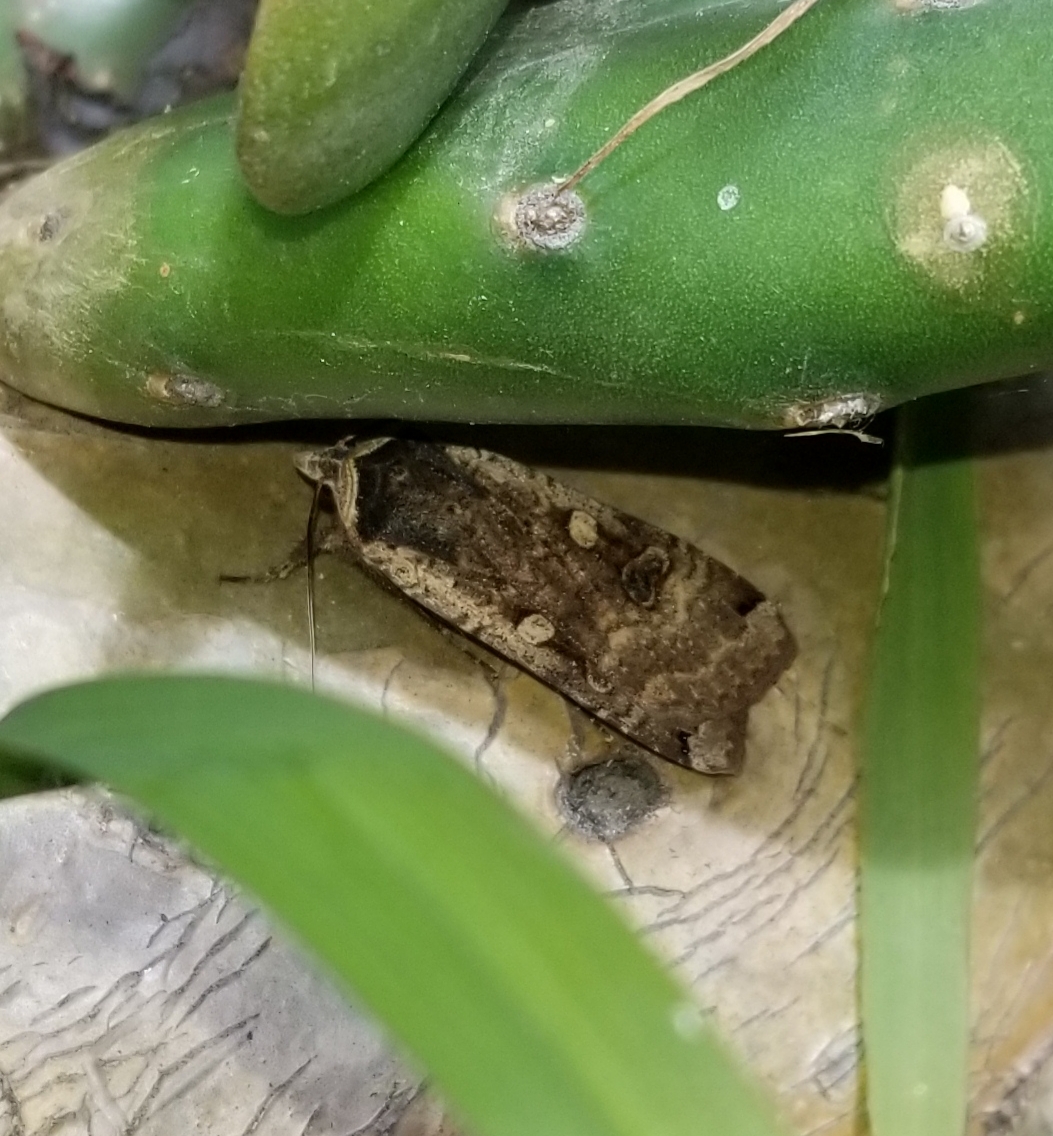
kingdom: Animalia
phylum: Arthropoda
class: Insecta
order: Lepidoptera
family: Noctuidae
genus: Noctua
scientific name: Noctua pronuba
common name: Large yellow underwing
